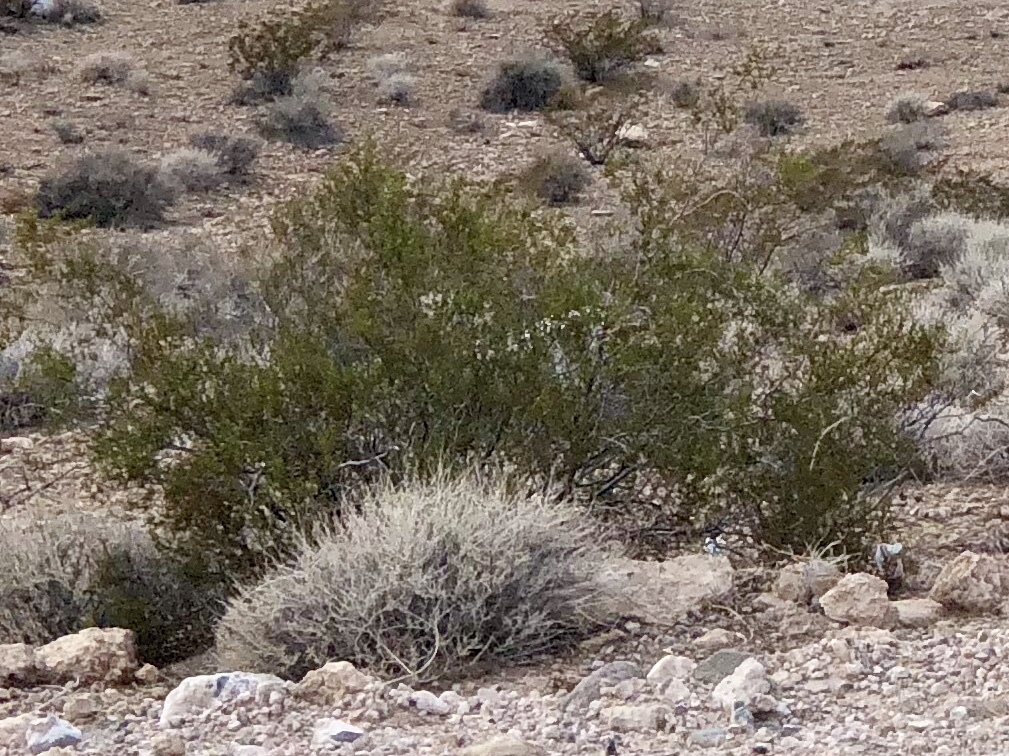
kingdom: Plantae
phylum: Tracheophyta
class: Magnoliopsida
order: Zygophyllales
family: Zygophyllaceae
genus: Larrea
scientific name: Larrea tridentata
